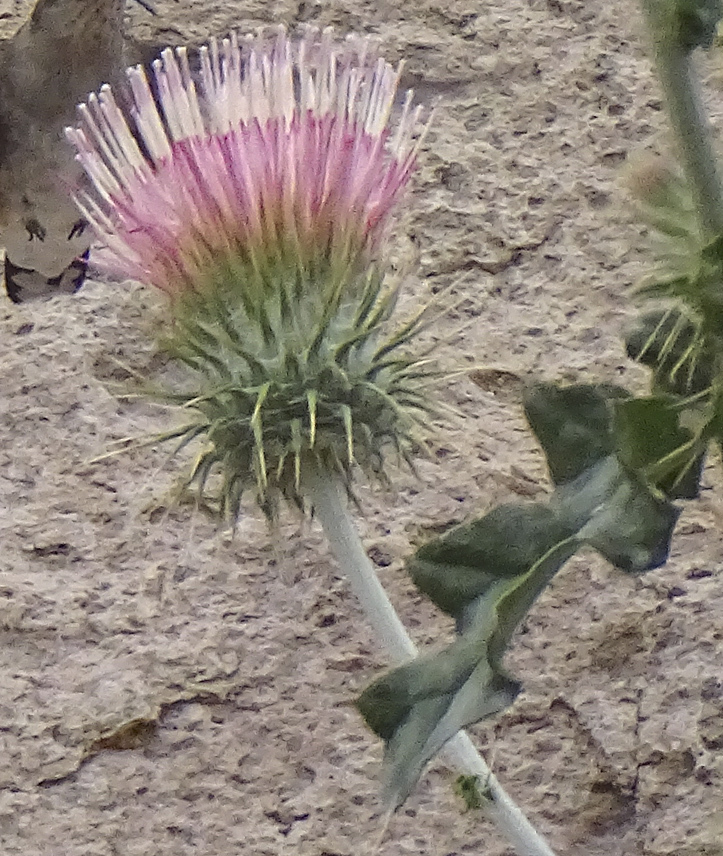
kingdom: Plantae
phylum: Tracheophyta
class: Magnoliopsida
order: Asterales
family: Asteraceae
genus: Cirsium
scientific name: Cirsium occidentale
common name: Western thistle
